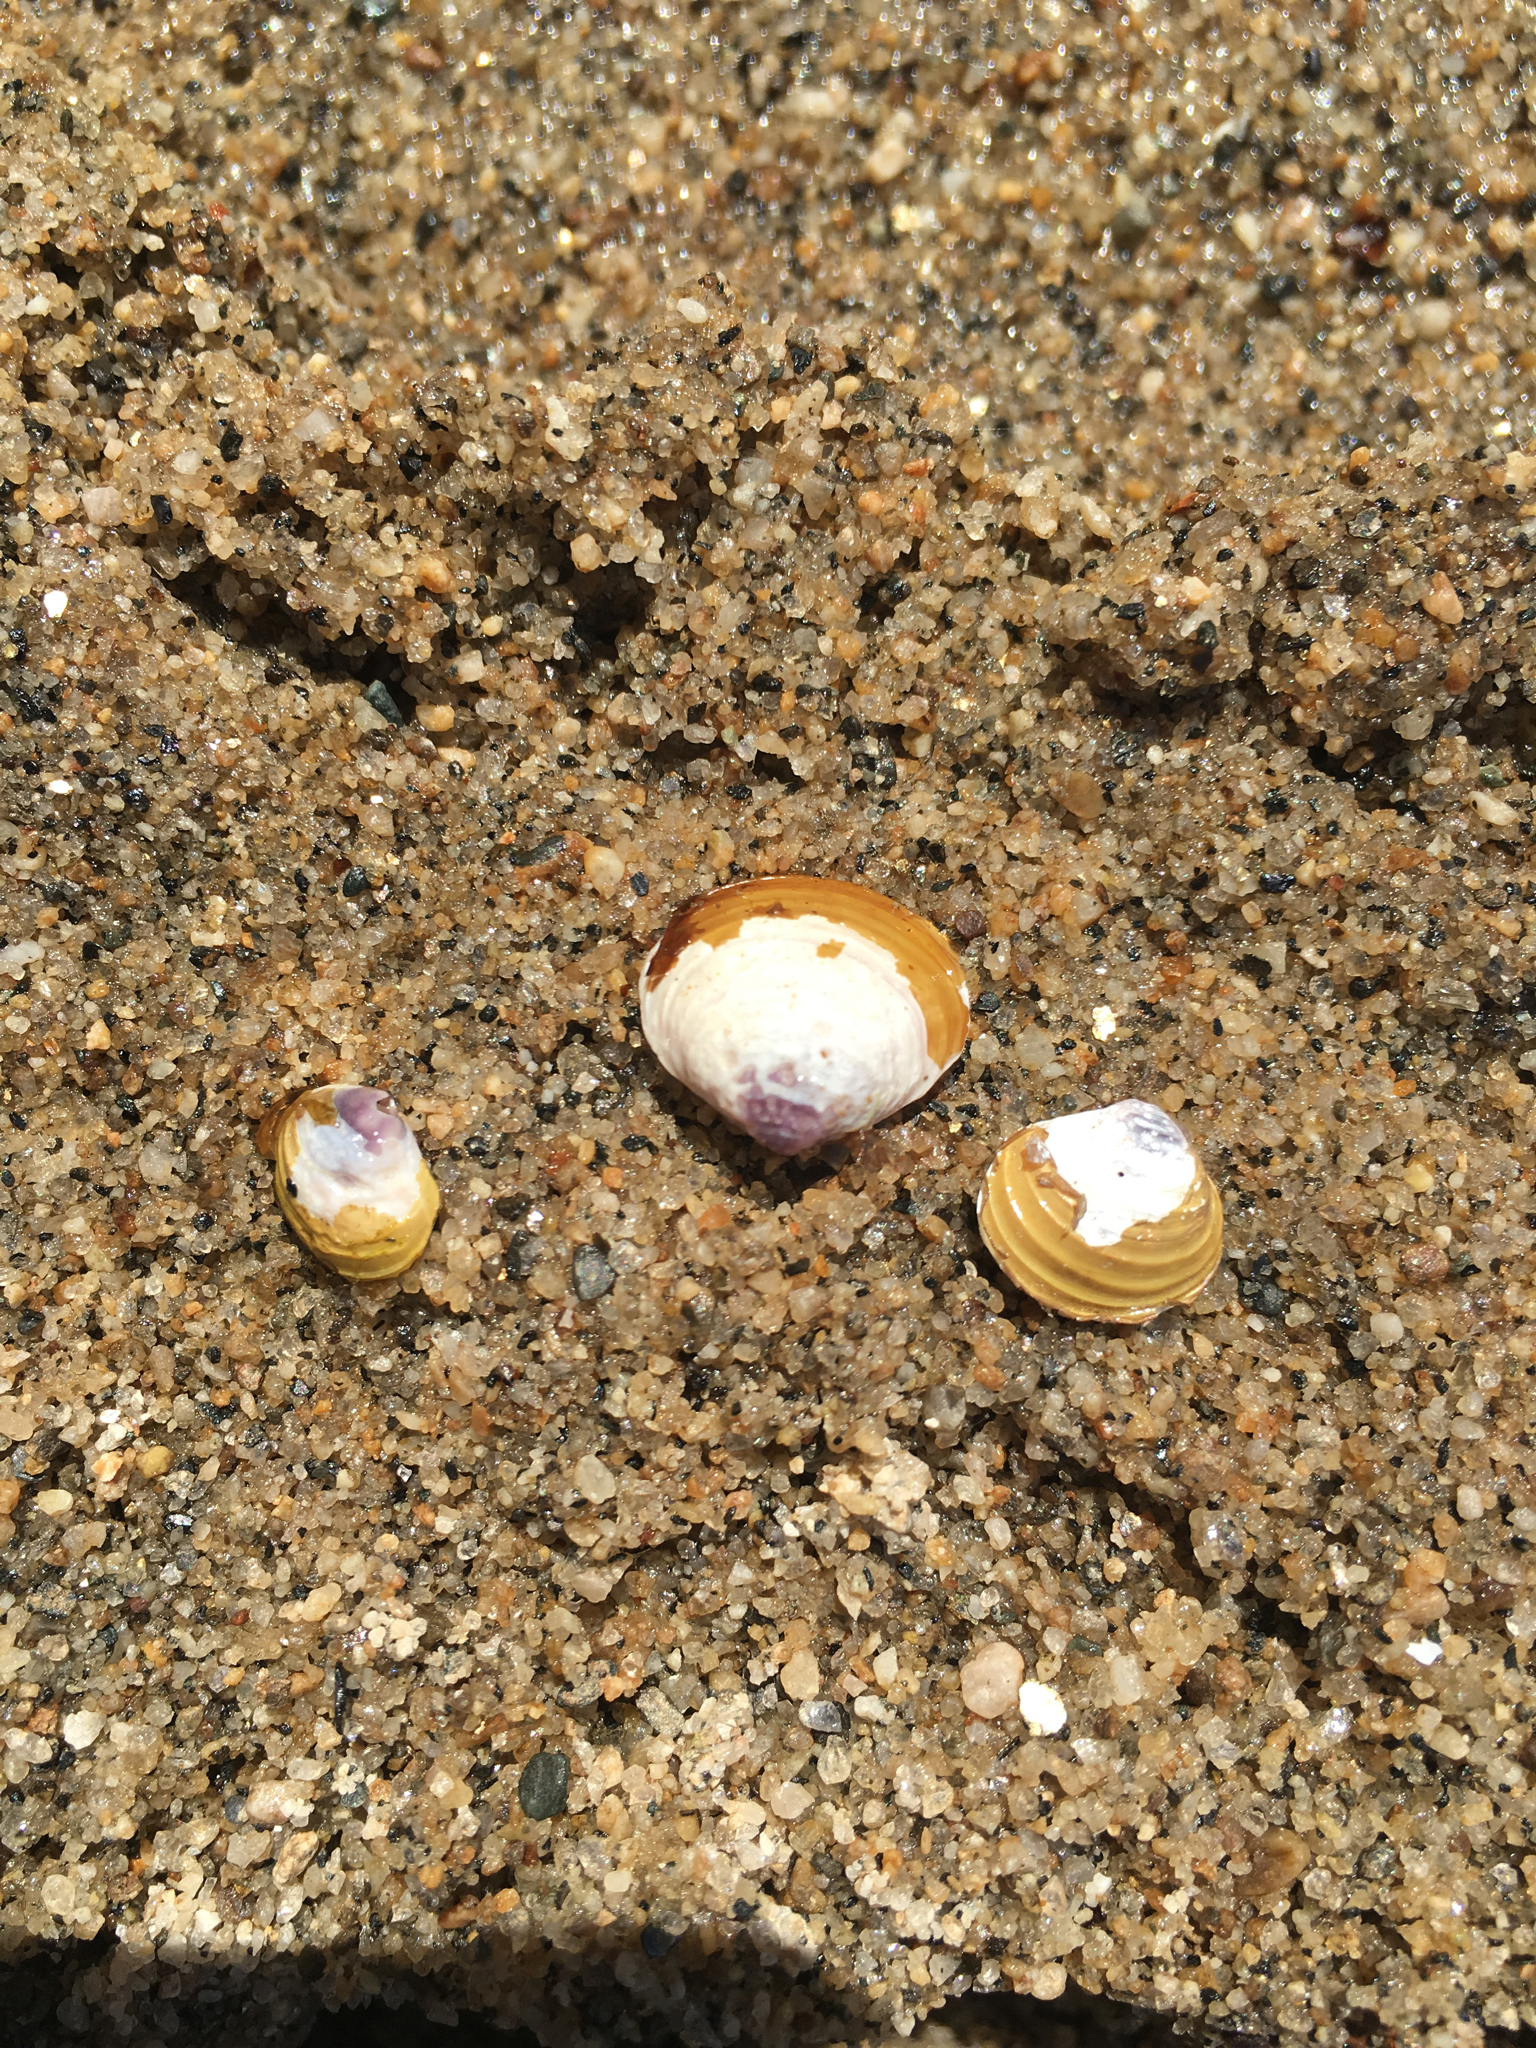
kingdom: Animalia
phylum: Mollusca
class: Bivalvia
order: Venerida
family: Cyrenidae
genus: Corbicula
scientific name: Corbicula fluminea
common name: Asian clam
